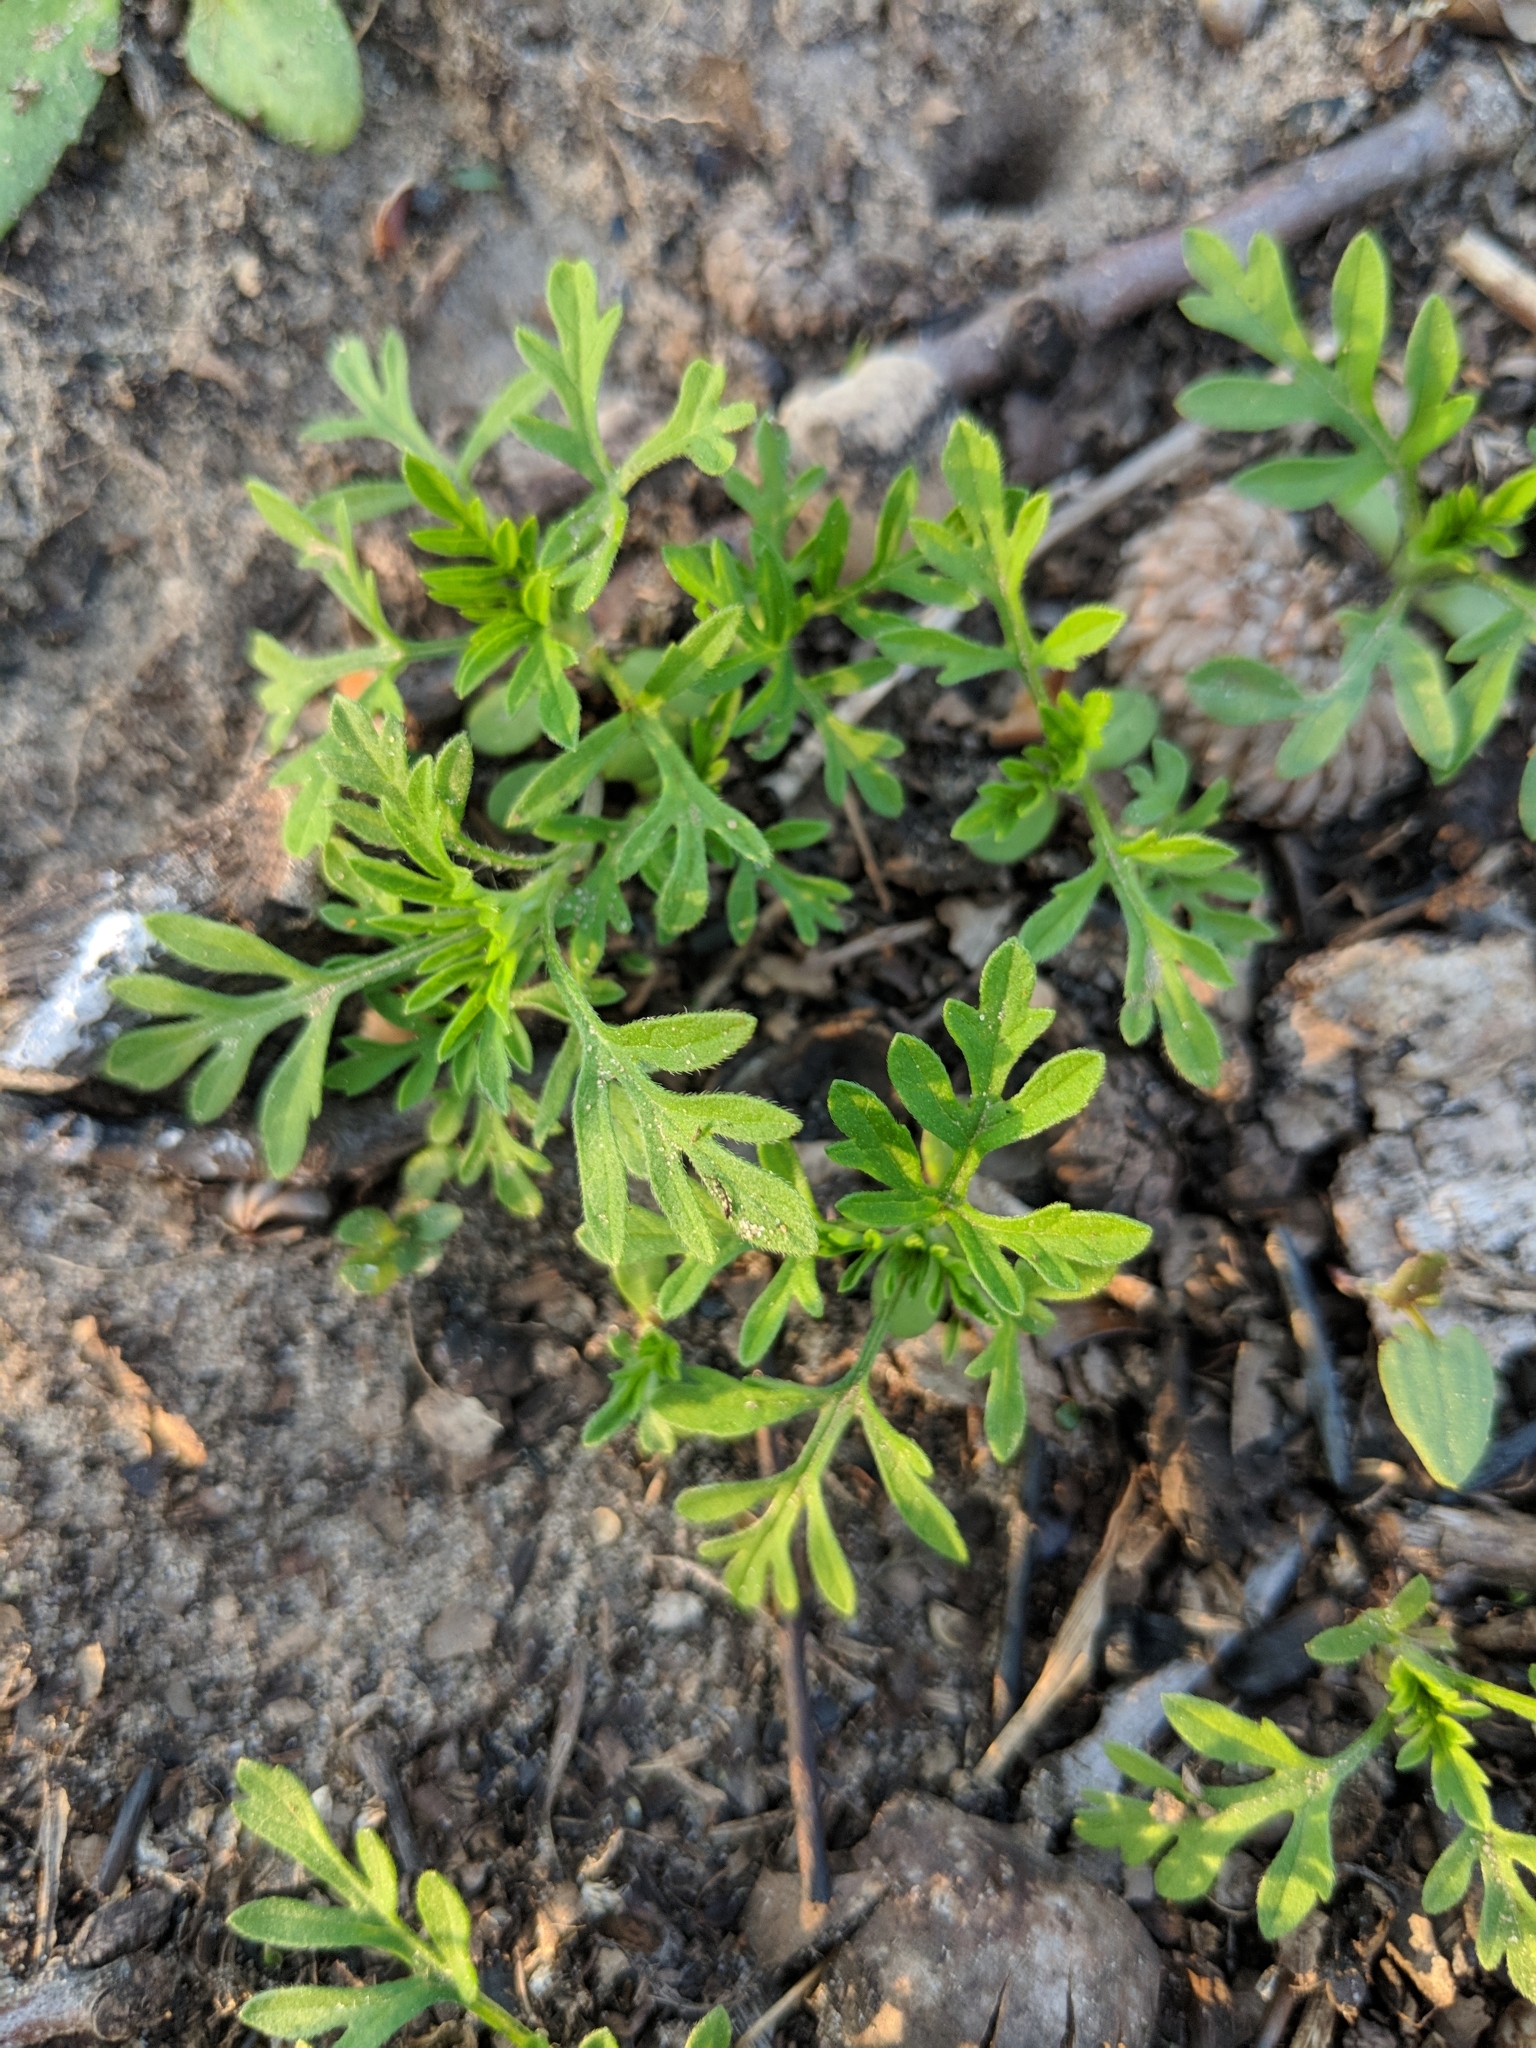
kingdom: Plantae
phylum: Tracheophyta
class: Magnoliopsida
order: Asterales
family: Asteraceae
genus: Ambrosia
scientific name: Ambrosia artemisiifolia
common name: Annual ragweed
